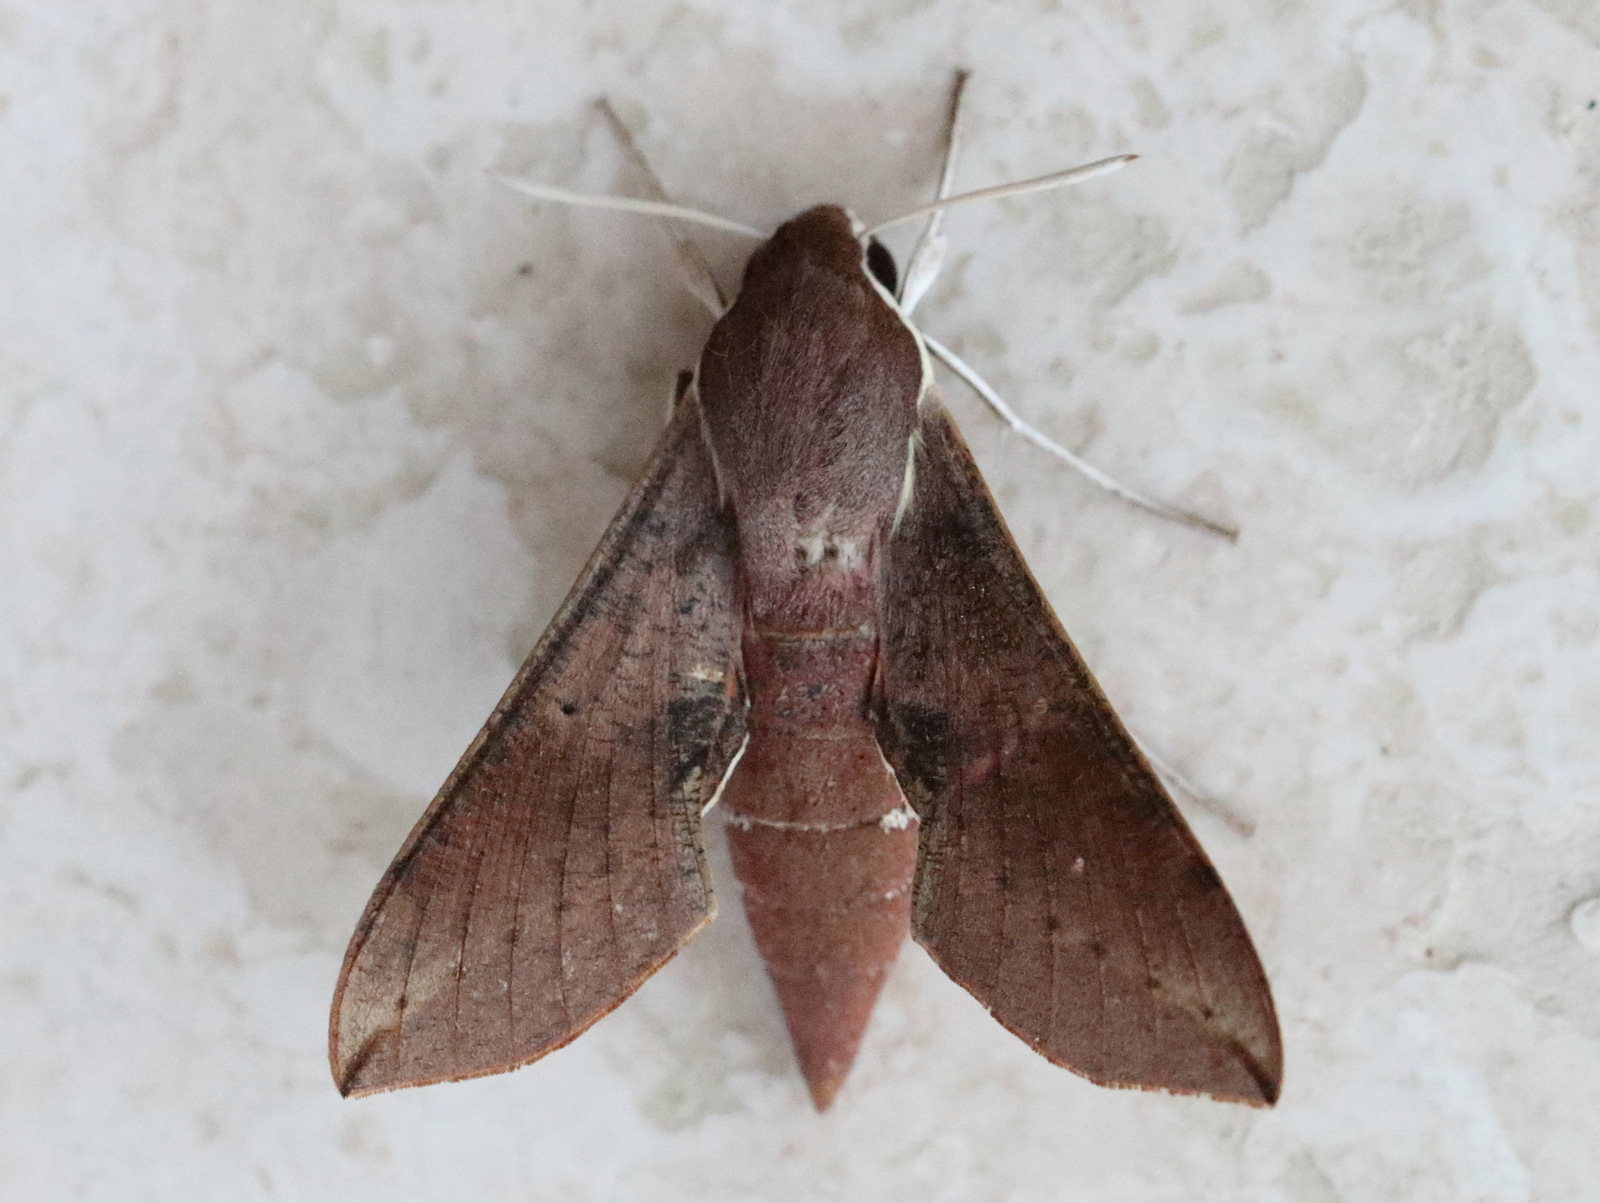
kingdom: Animalia
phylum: Arthropoda
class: Insecta
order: Lepidoptera
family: Sphingidae
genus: Hippotion
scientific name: Hippotion scrofa
